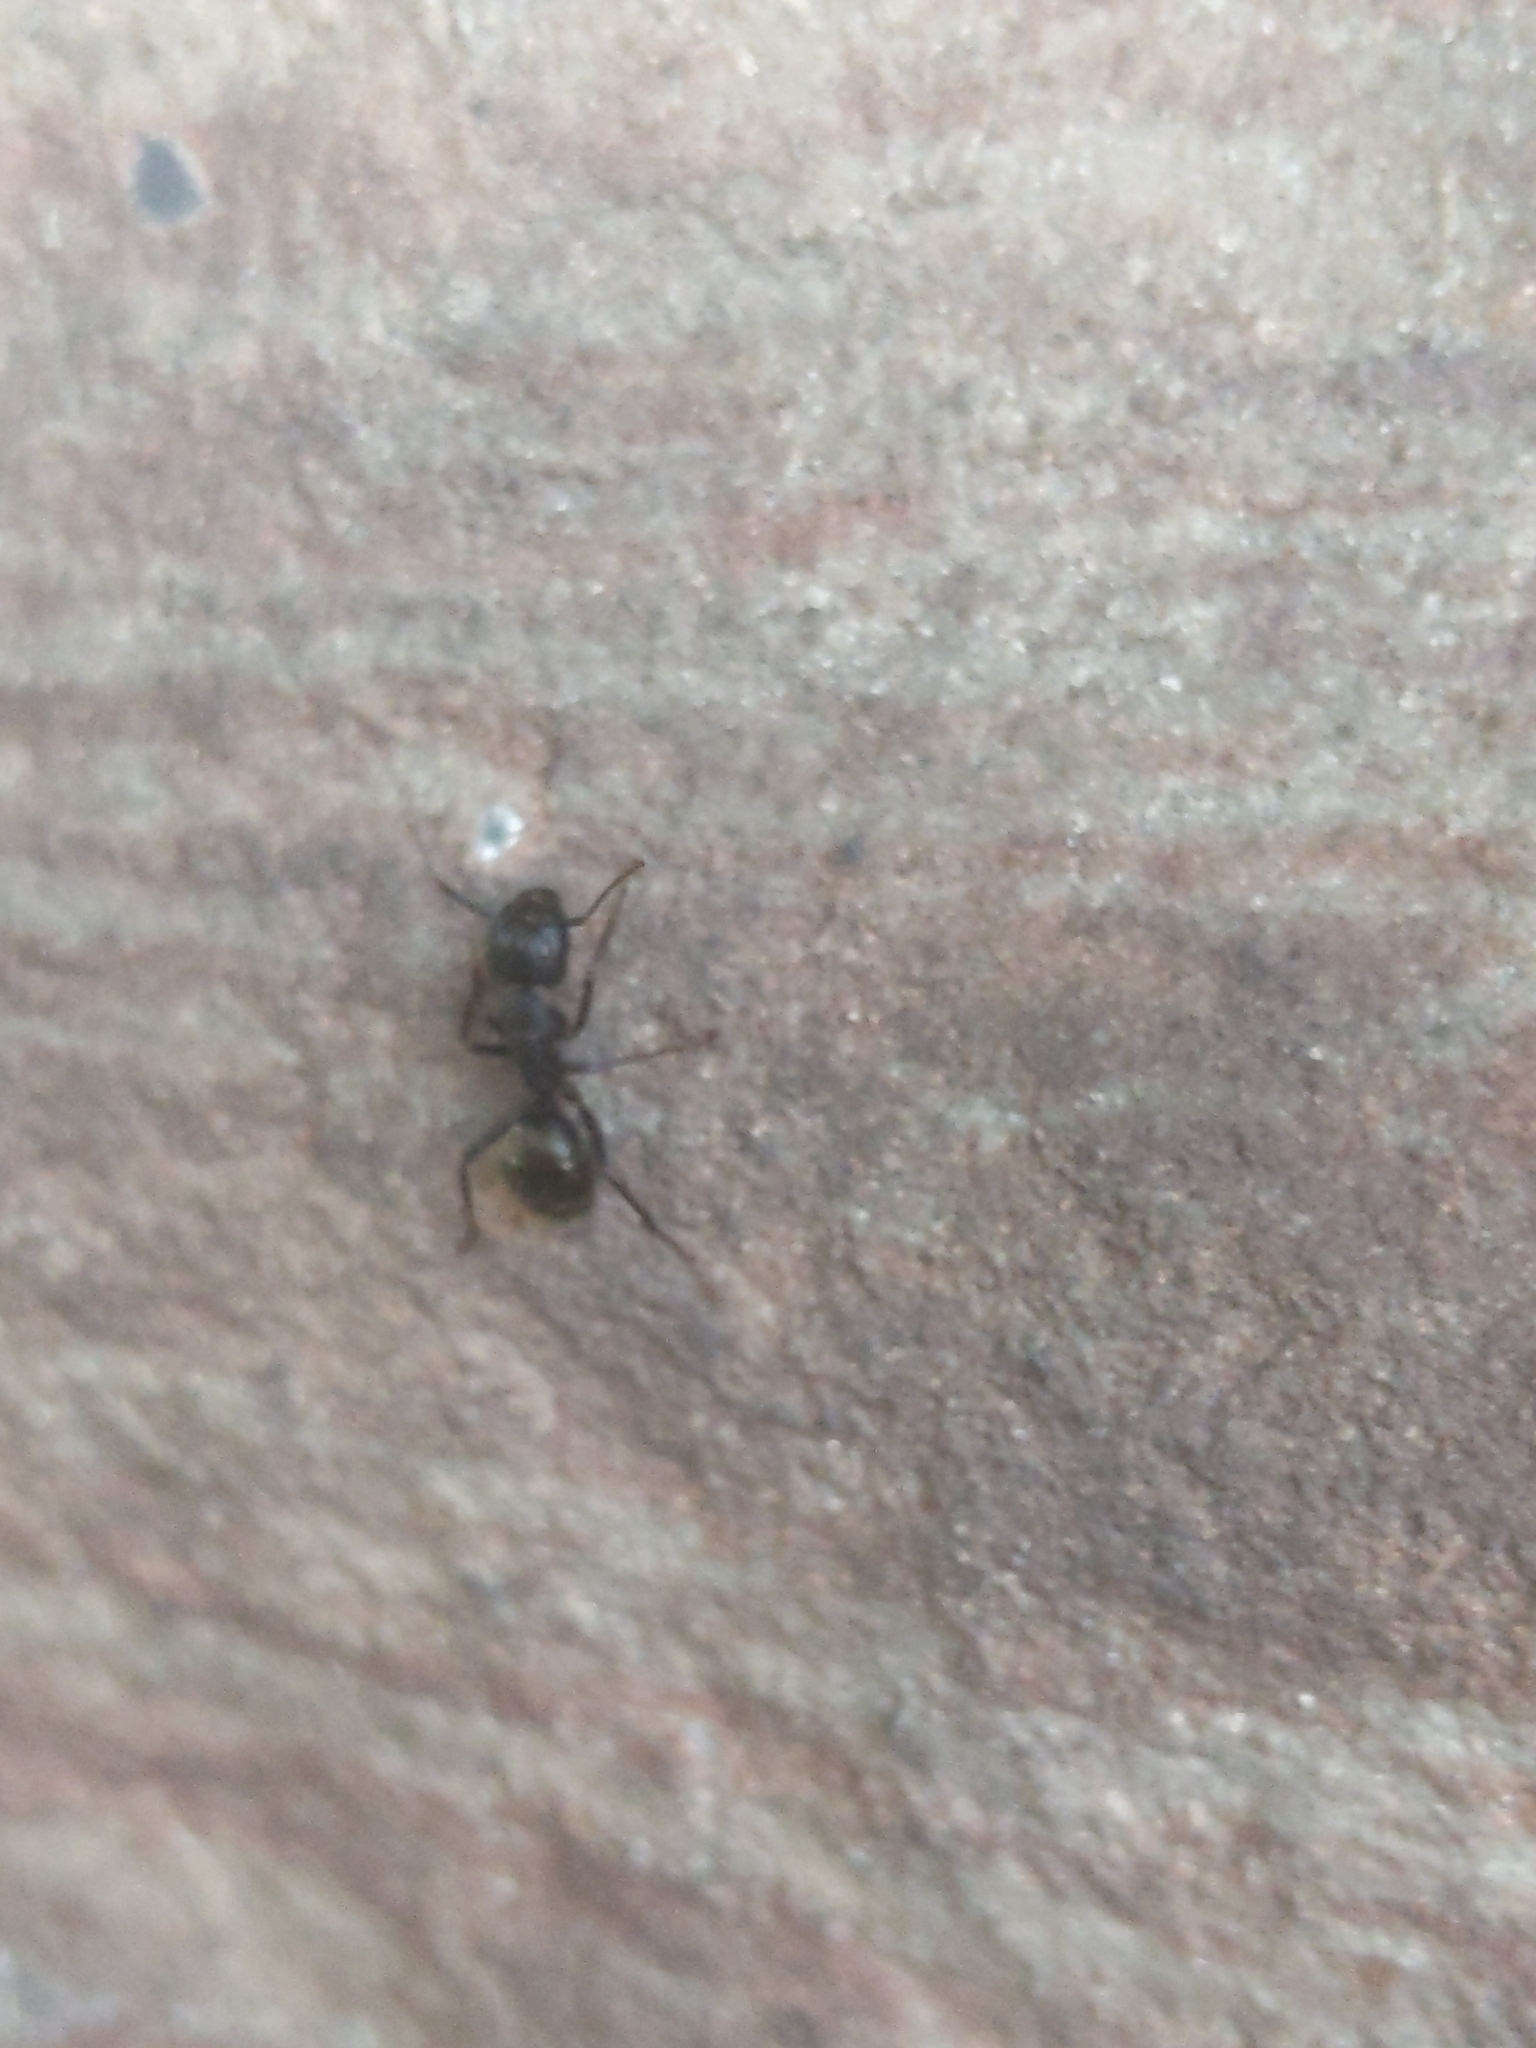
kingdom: Animalia
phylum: Arthropoda
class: Insecta
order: Hymenoptera
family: Formicidae
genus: Camponotus
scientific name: Camponotus pennsylvanicus
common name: Black carpenter ant
